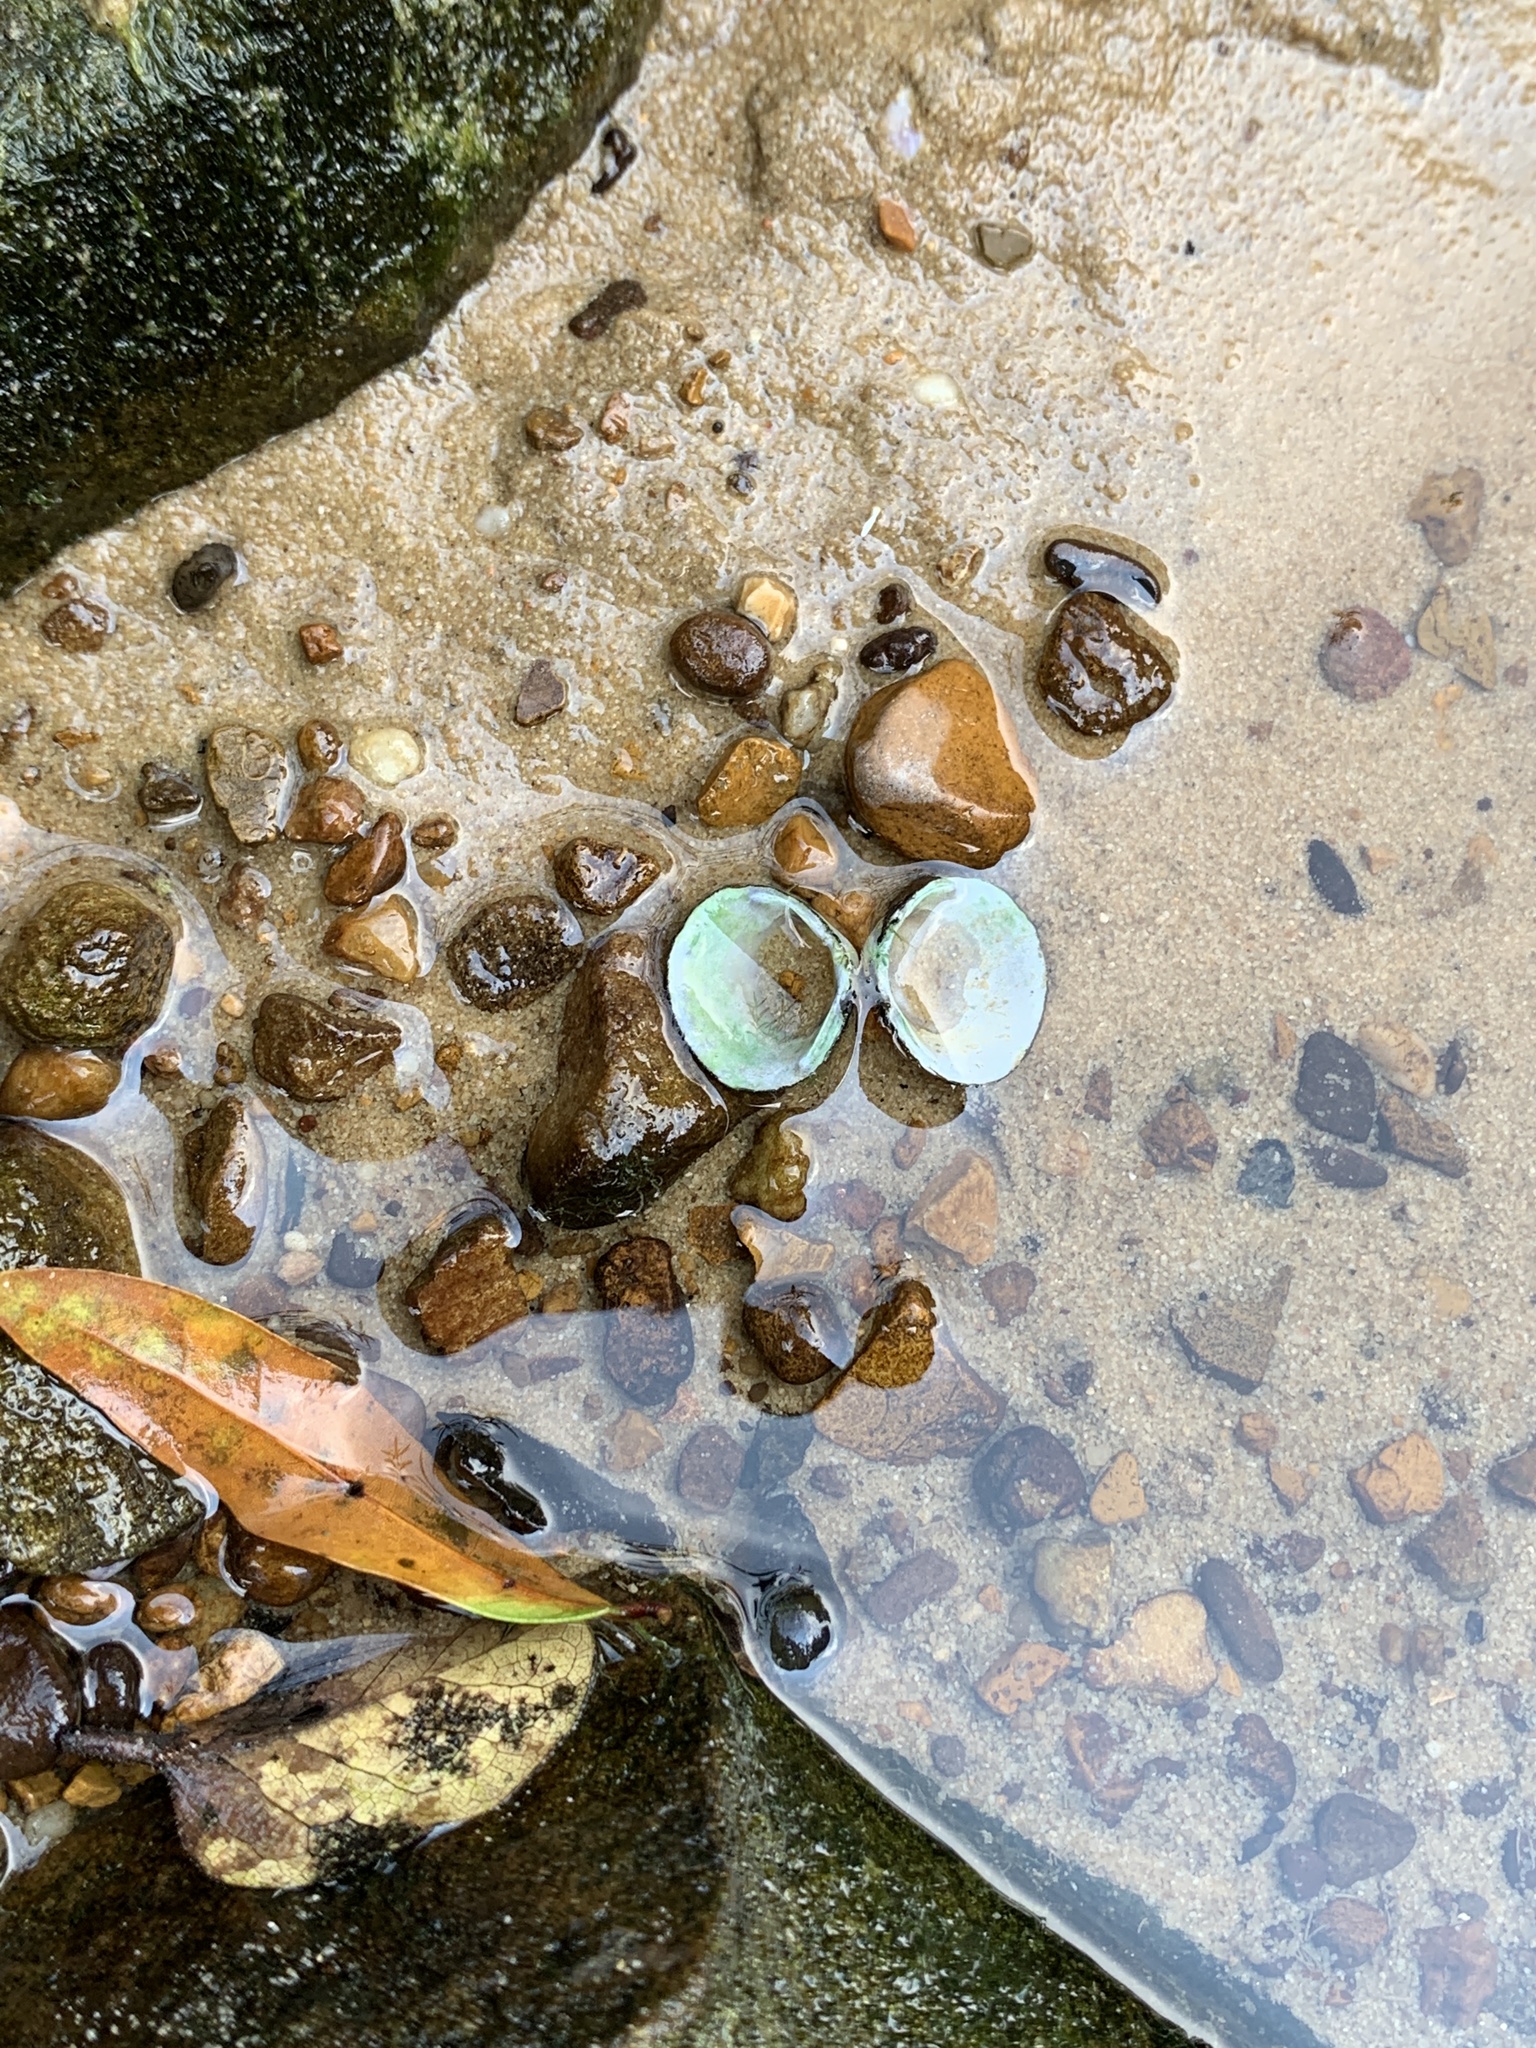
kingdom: Animalia
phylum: Mollusca
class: Bivalvia
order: Venerida
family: Cyrenidae
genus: Corbicula
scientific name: Corbicula fluminea
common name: Asian clam
